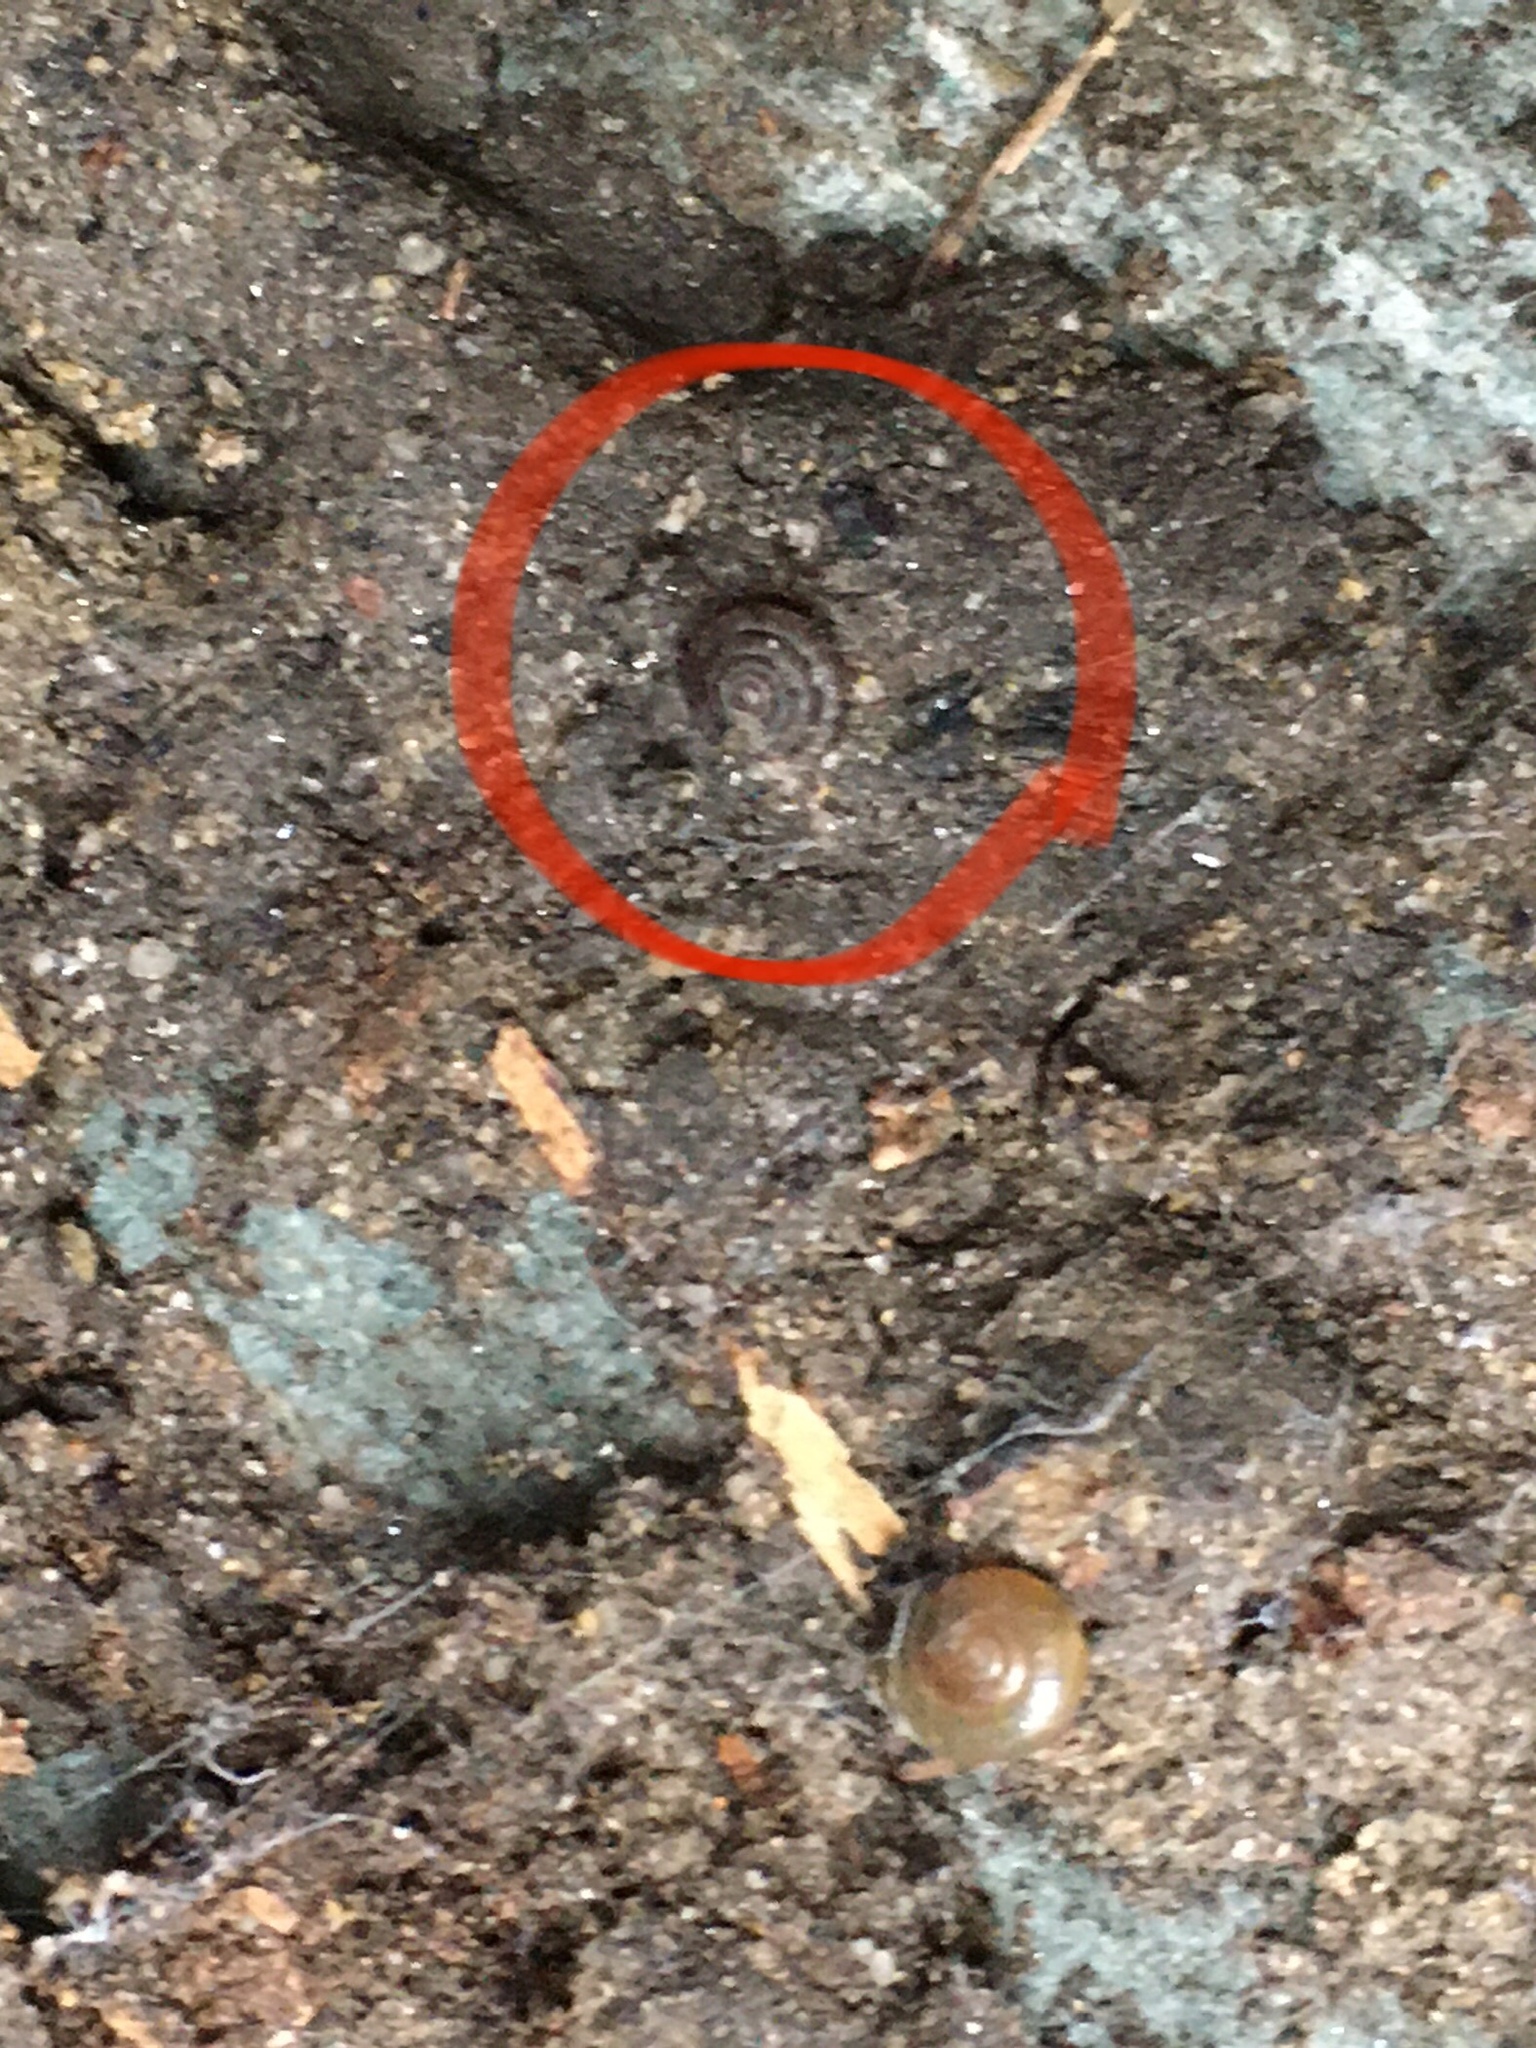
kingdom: Animalia
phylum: Mollusca
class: Gastropoda
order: Stylommatophora
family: Discidae
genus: Discus
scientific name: Discus rotundatus
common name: Rounded snail
